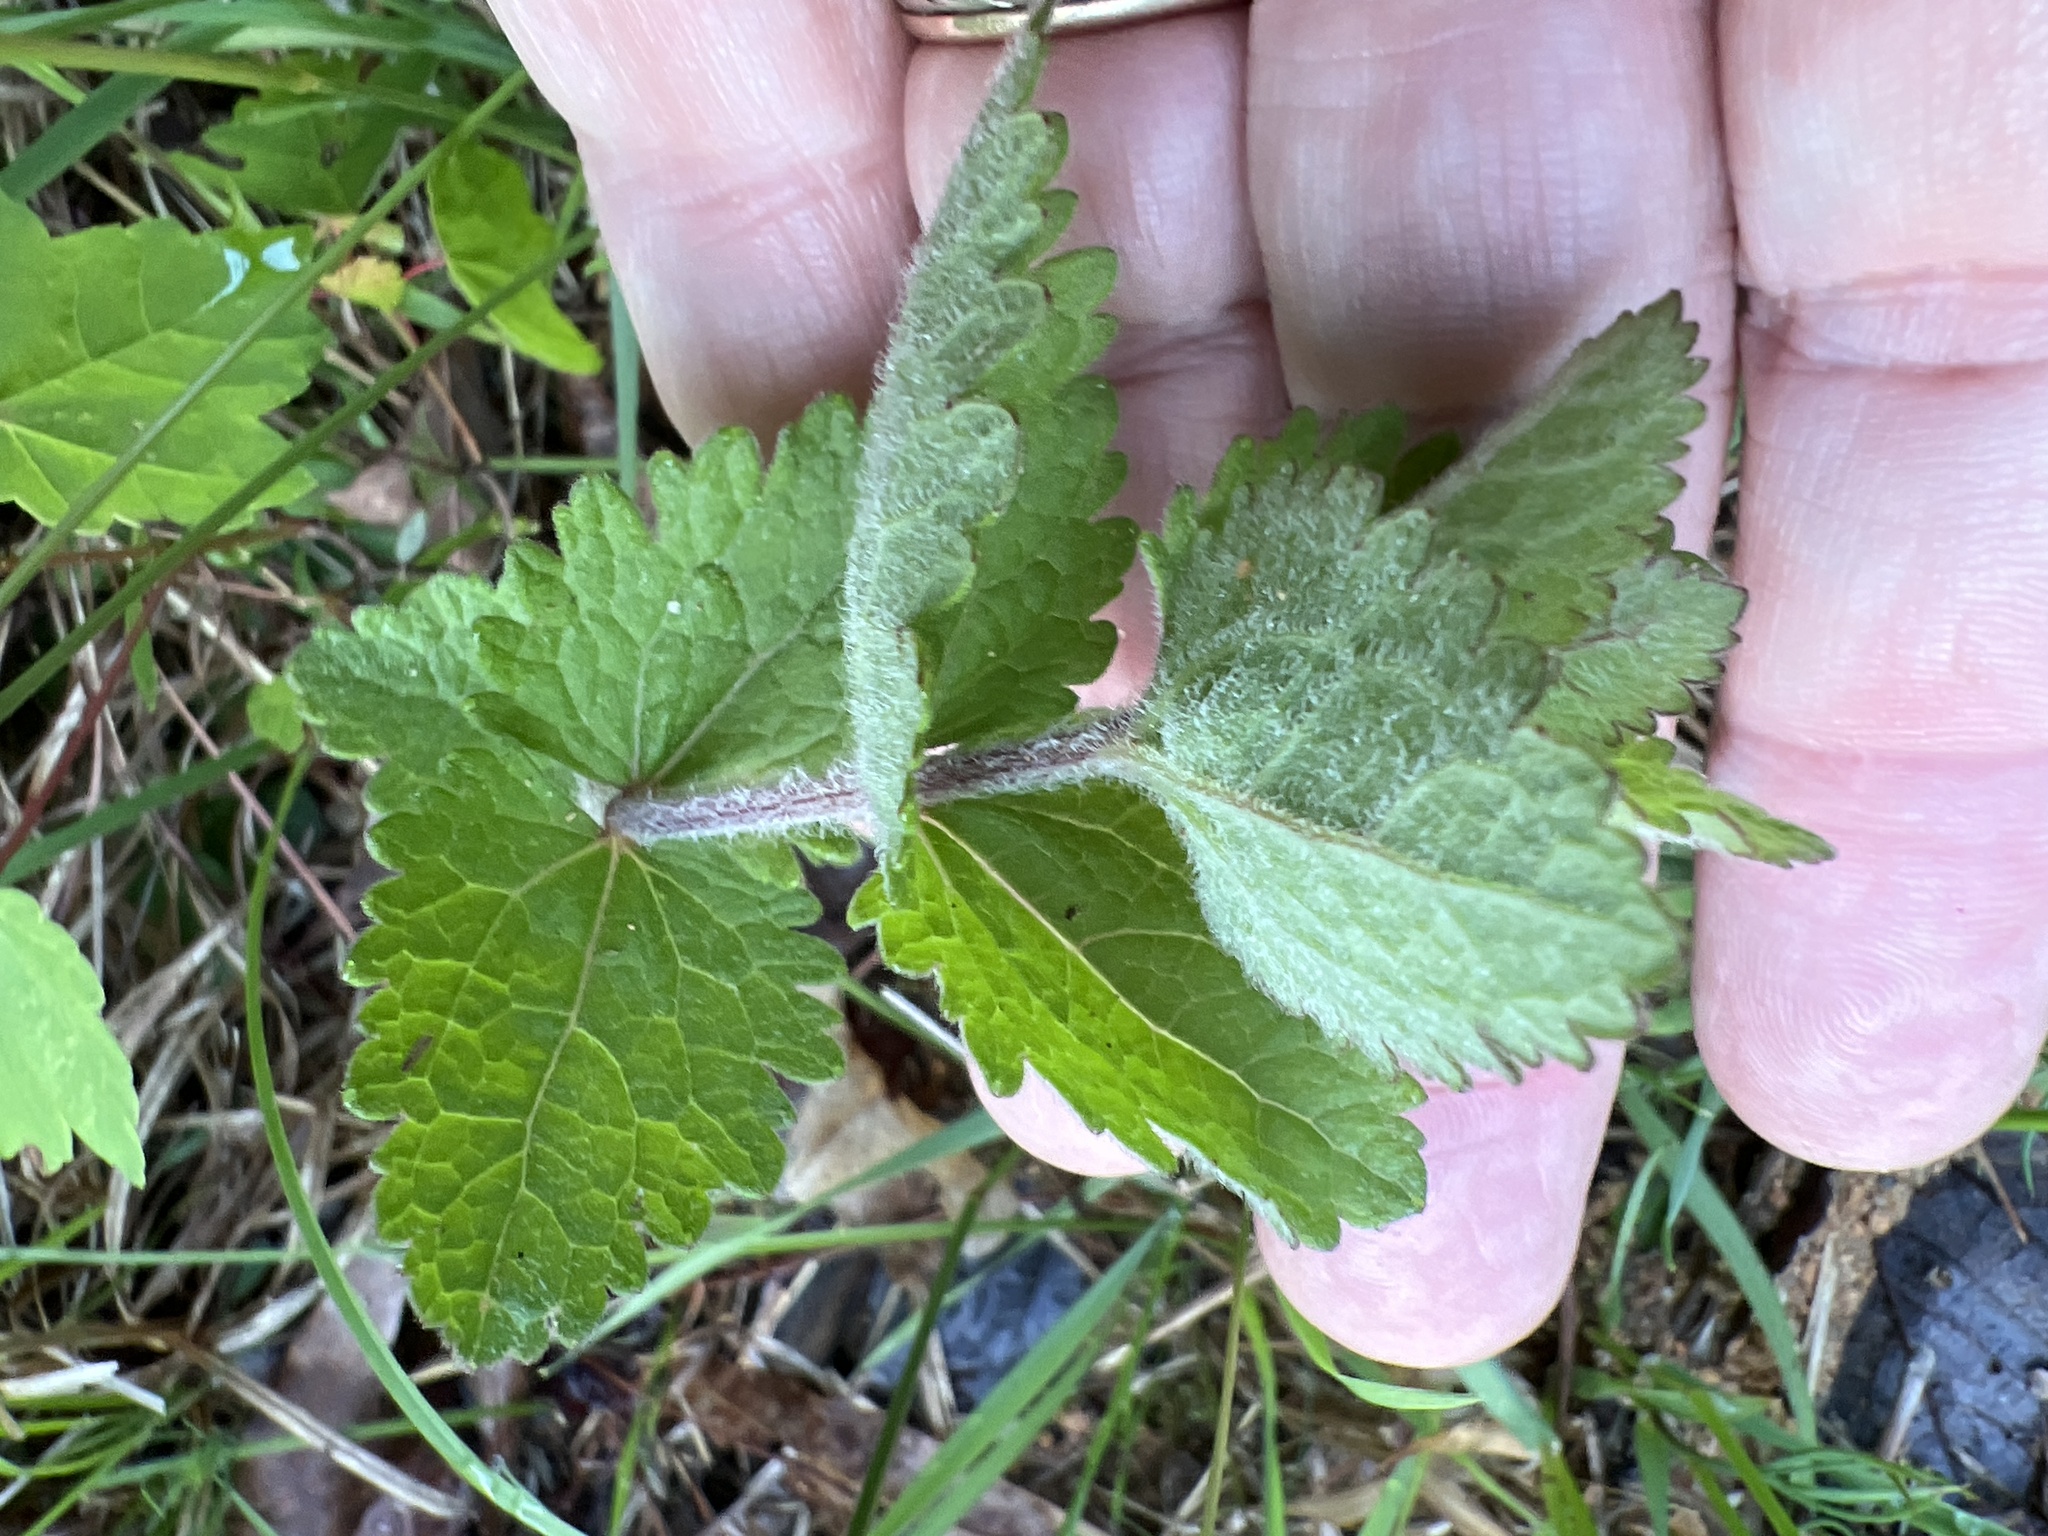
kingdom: Plantae
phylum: Tracheophyta
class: Magnoliopsida
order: Asterales
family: Asteraceae
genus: Eupatorium
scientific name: Eupatorium rotundifolium
